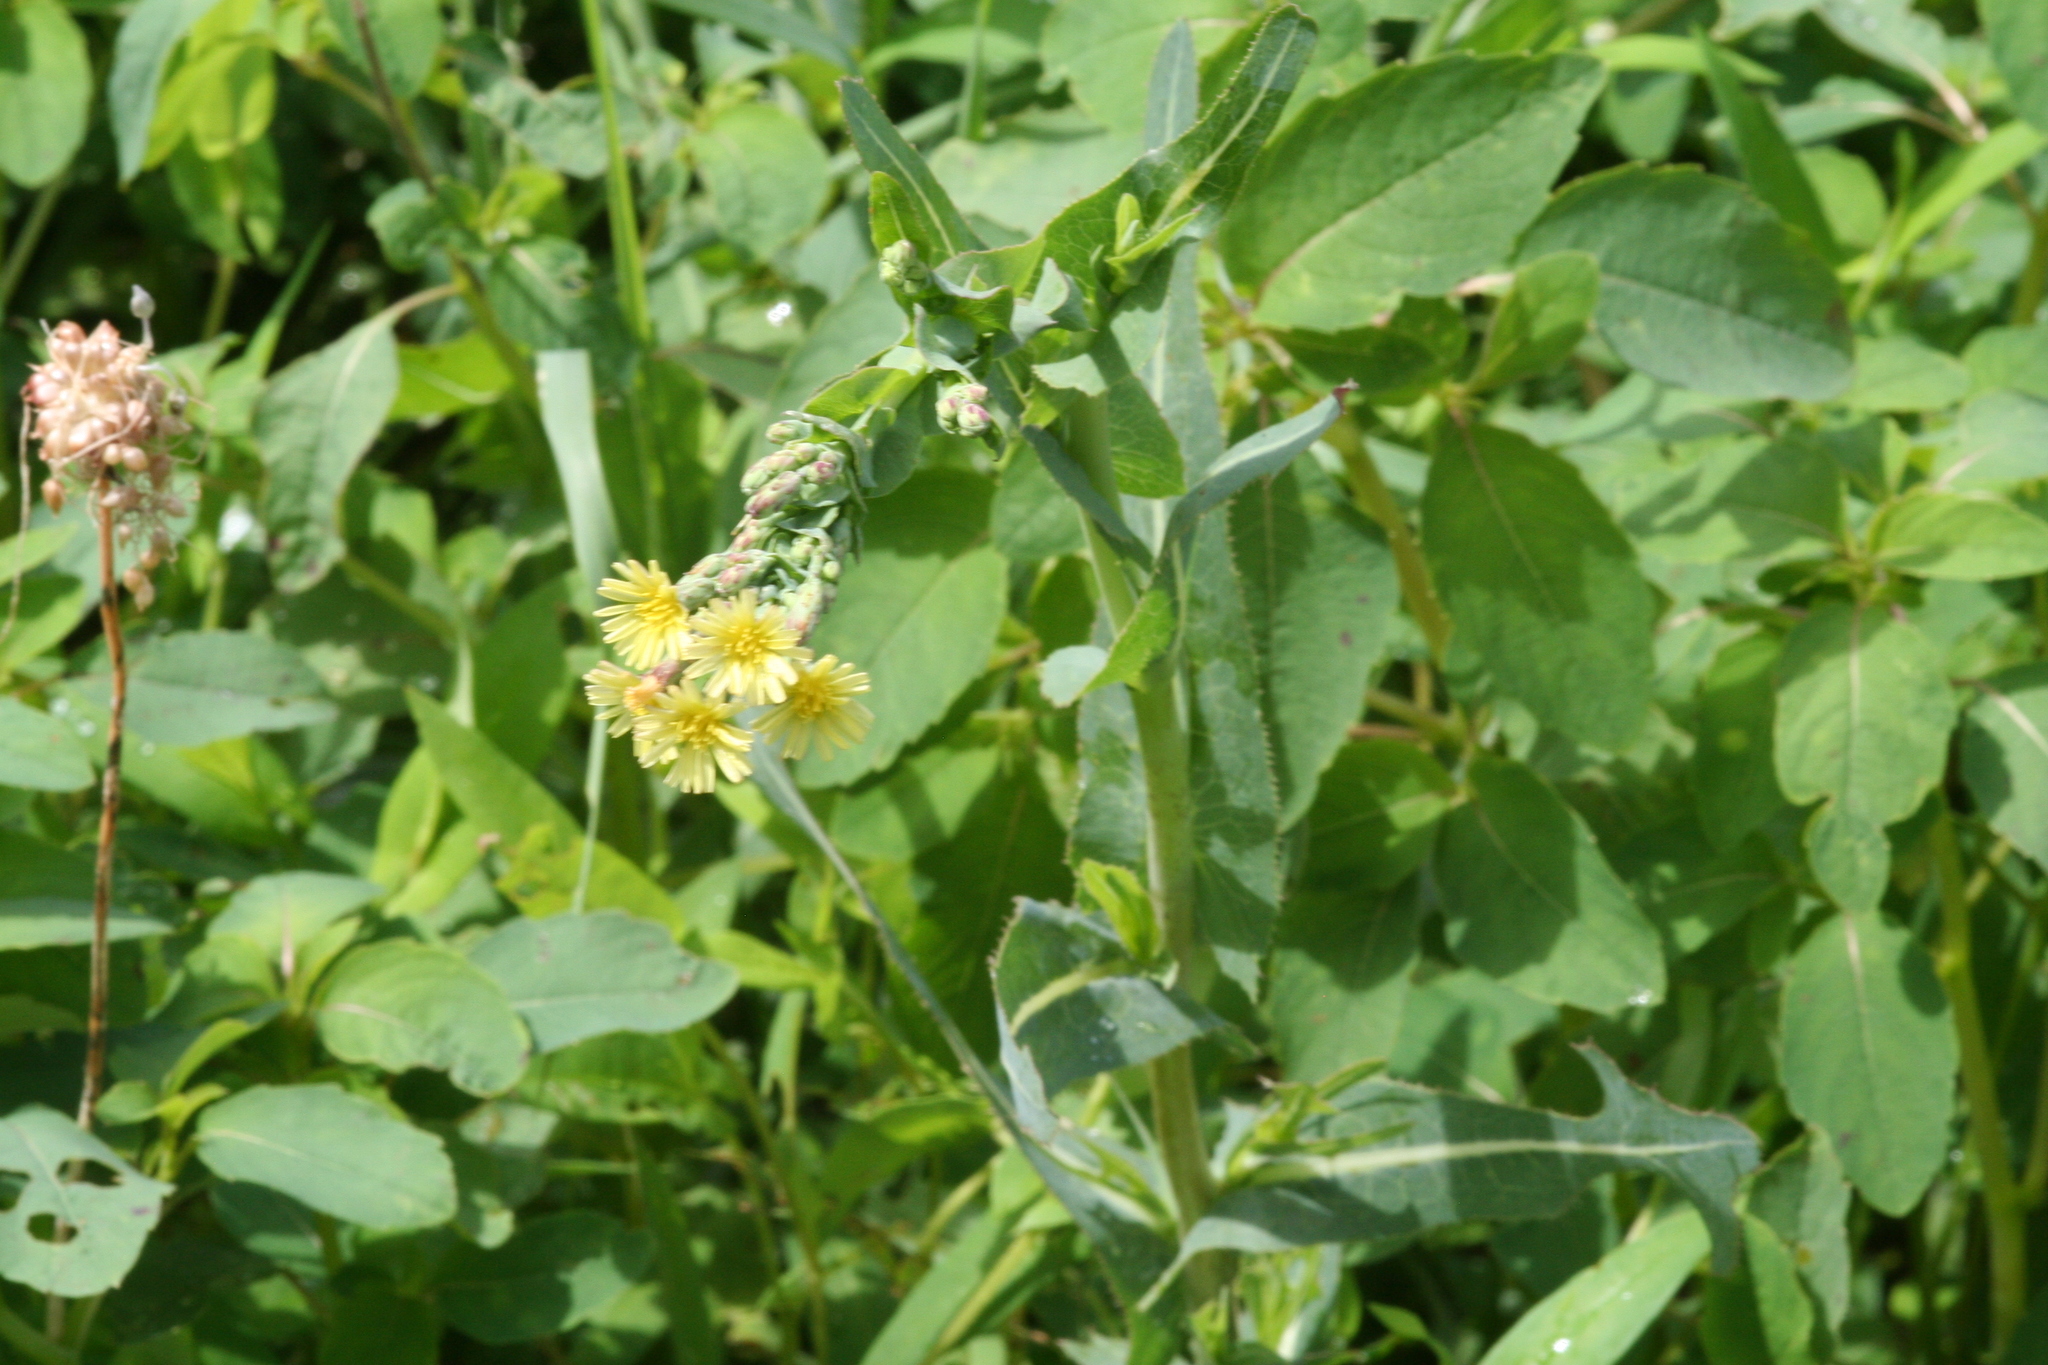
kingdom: Plantae
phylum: Tracheophyta
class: Magnoliopsida
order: Asterales
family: Asteraceae
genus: Lactuca
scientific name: Lactuca serriola
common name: Prickly lettuce
